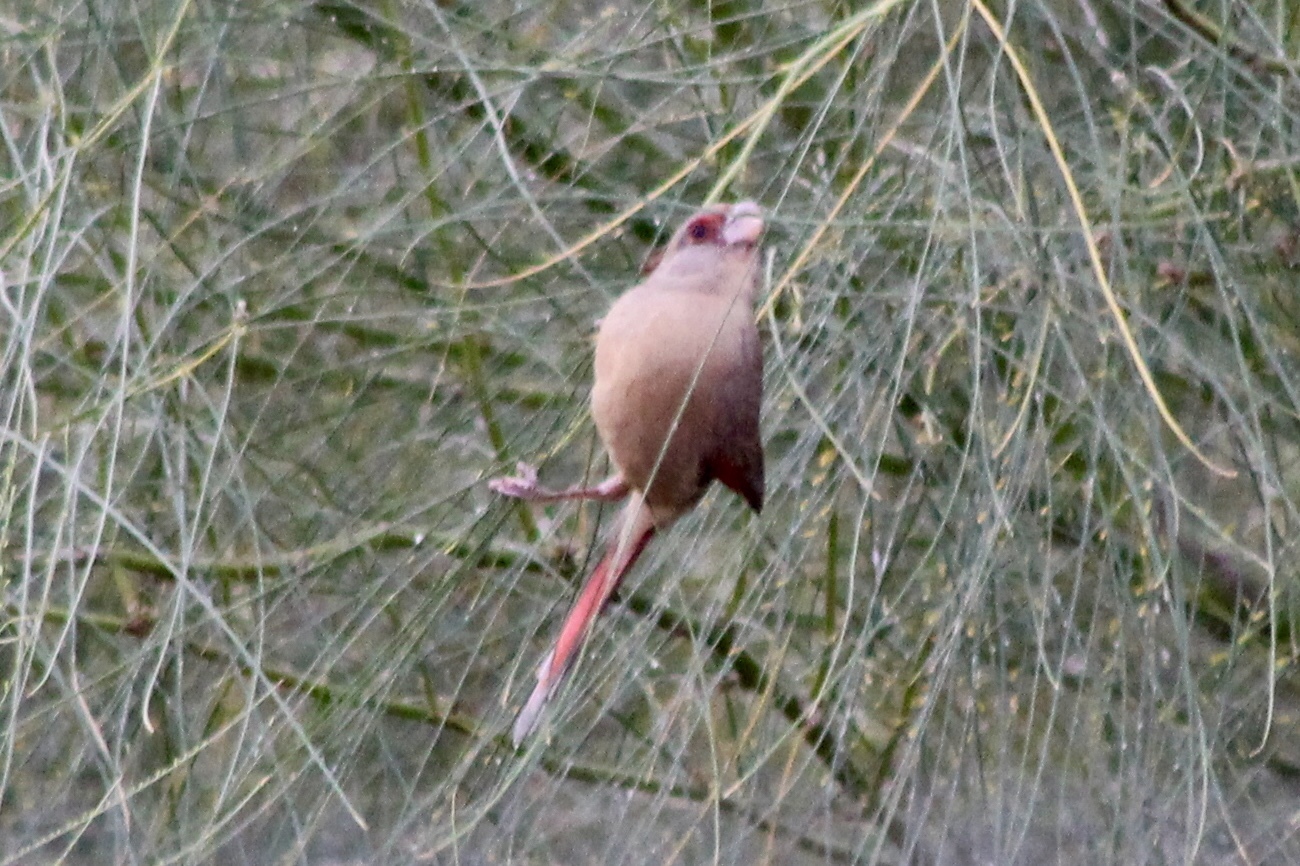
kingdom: Animalia
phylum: Chordata
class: Aves
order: Passeriformes
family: Cardinalidae
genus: Cardinalis
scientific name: Cardinalis sinuatus
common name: Pyrrhuloxia
